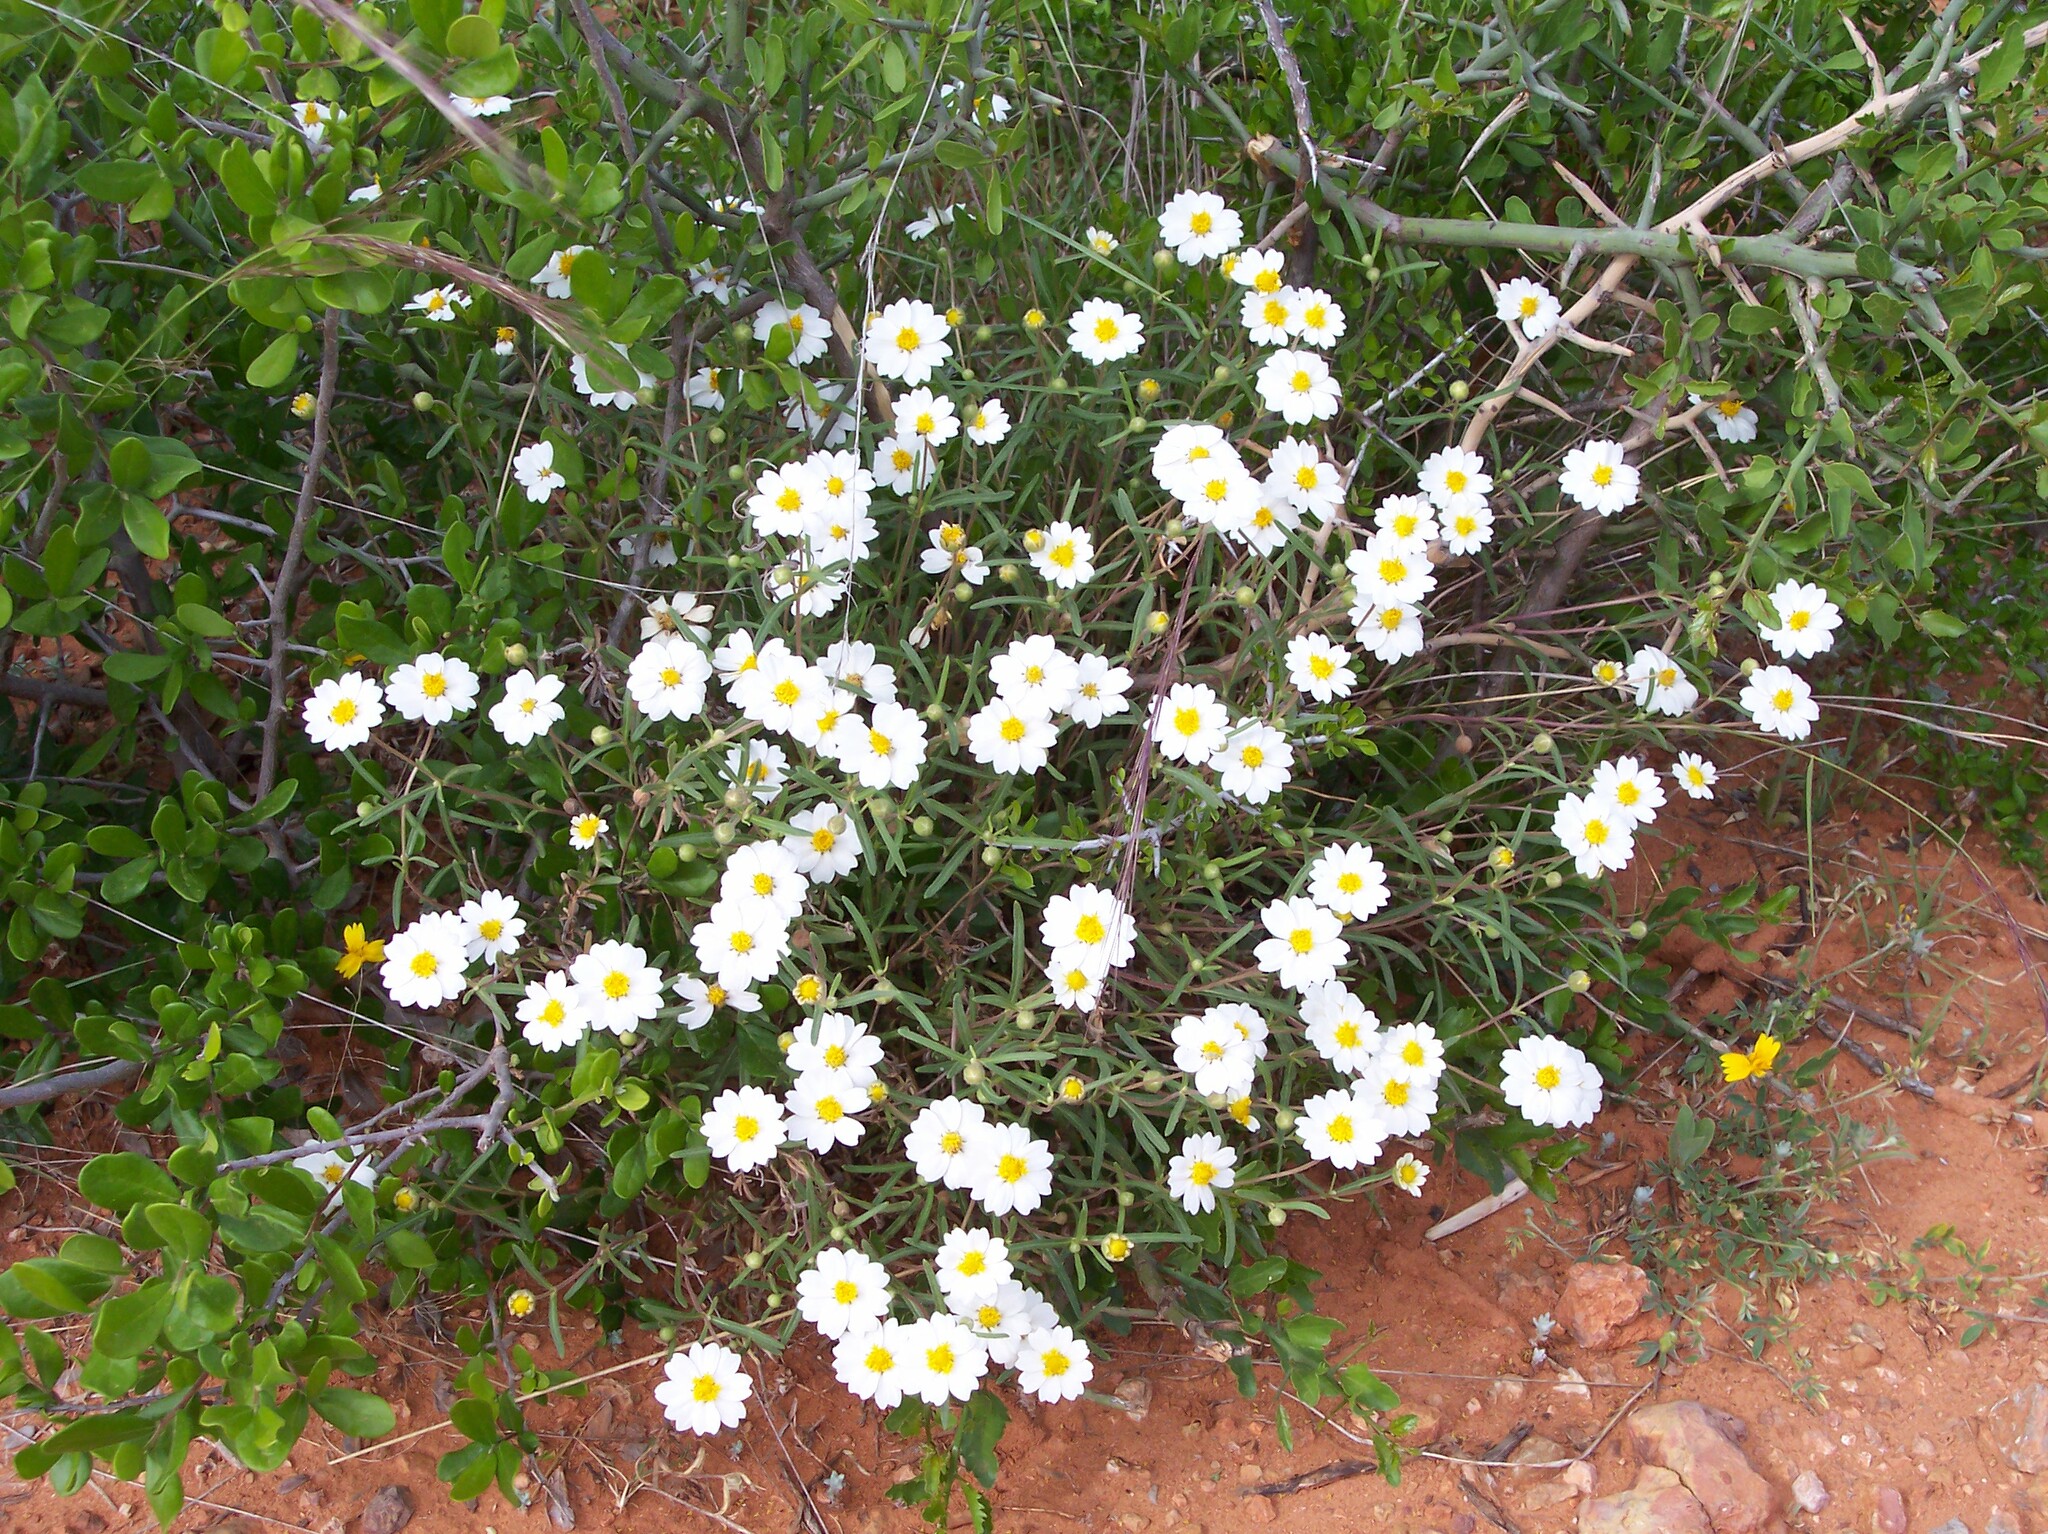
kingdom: Plantae
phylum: Tracheophyta
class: Magnoliopsida
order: Asterales
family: Asteraceae
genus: Melampodium
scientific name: Melampodium leucanthum
